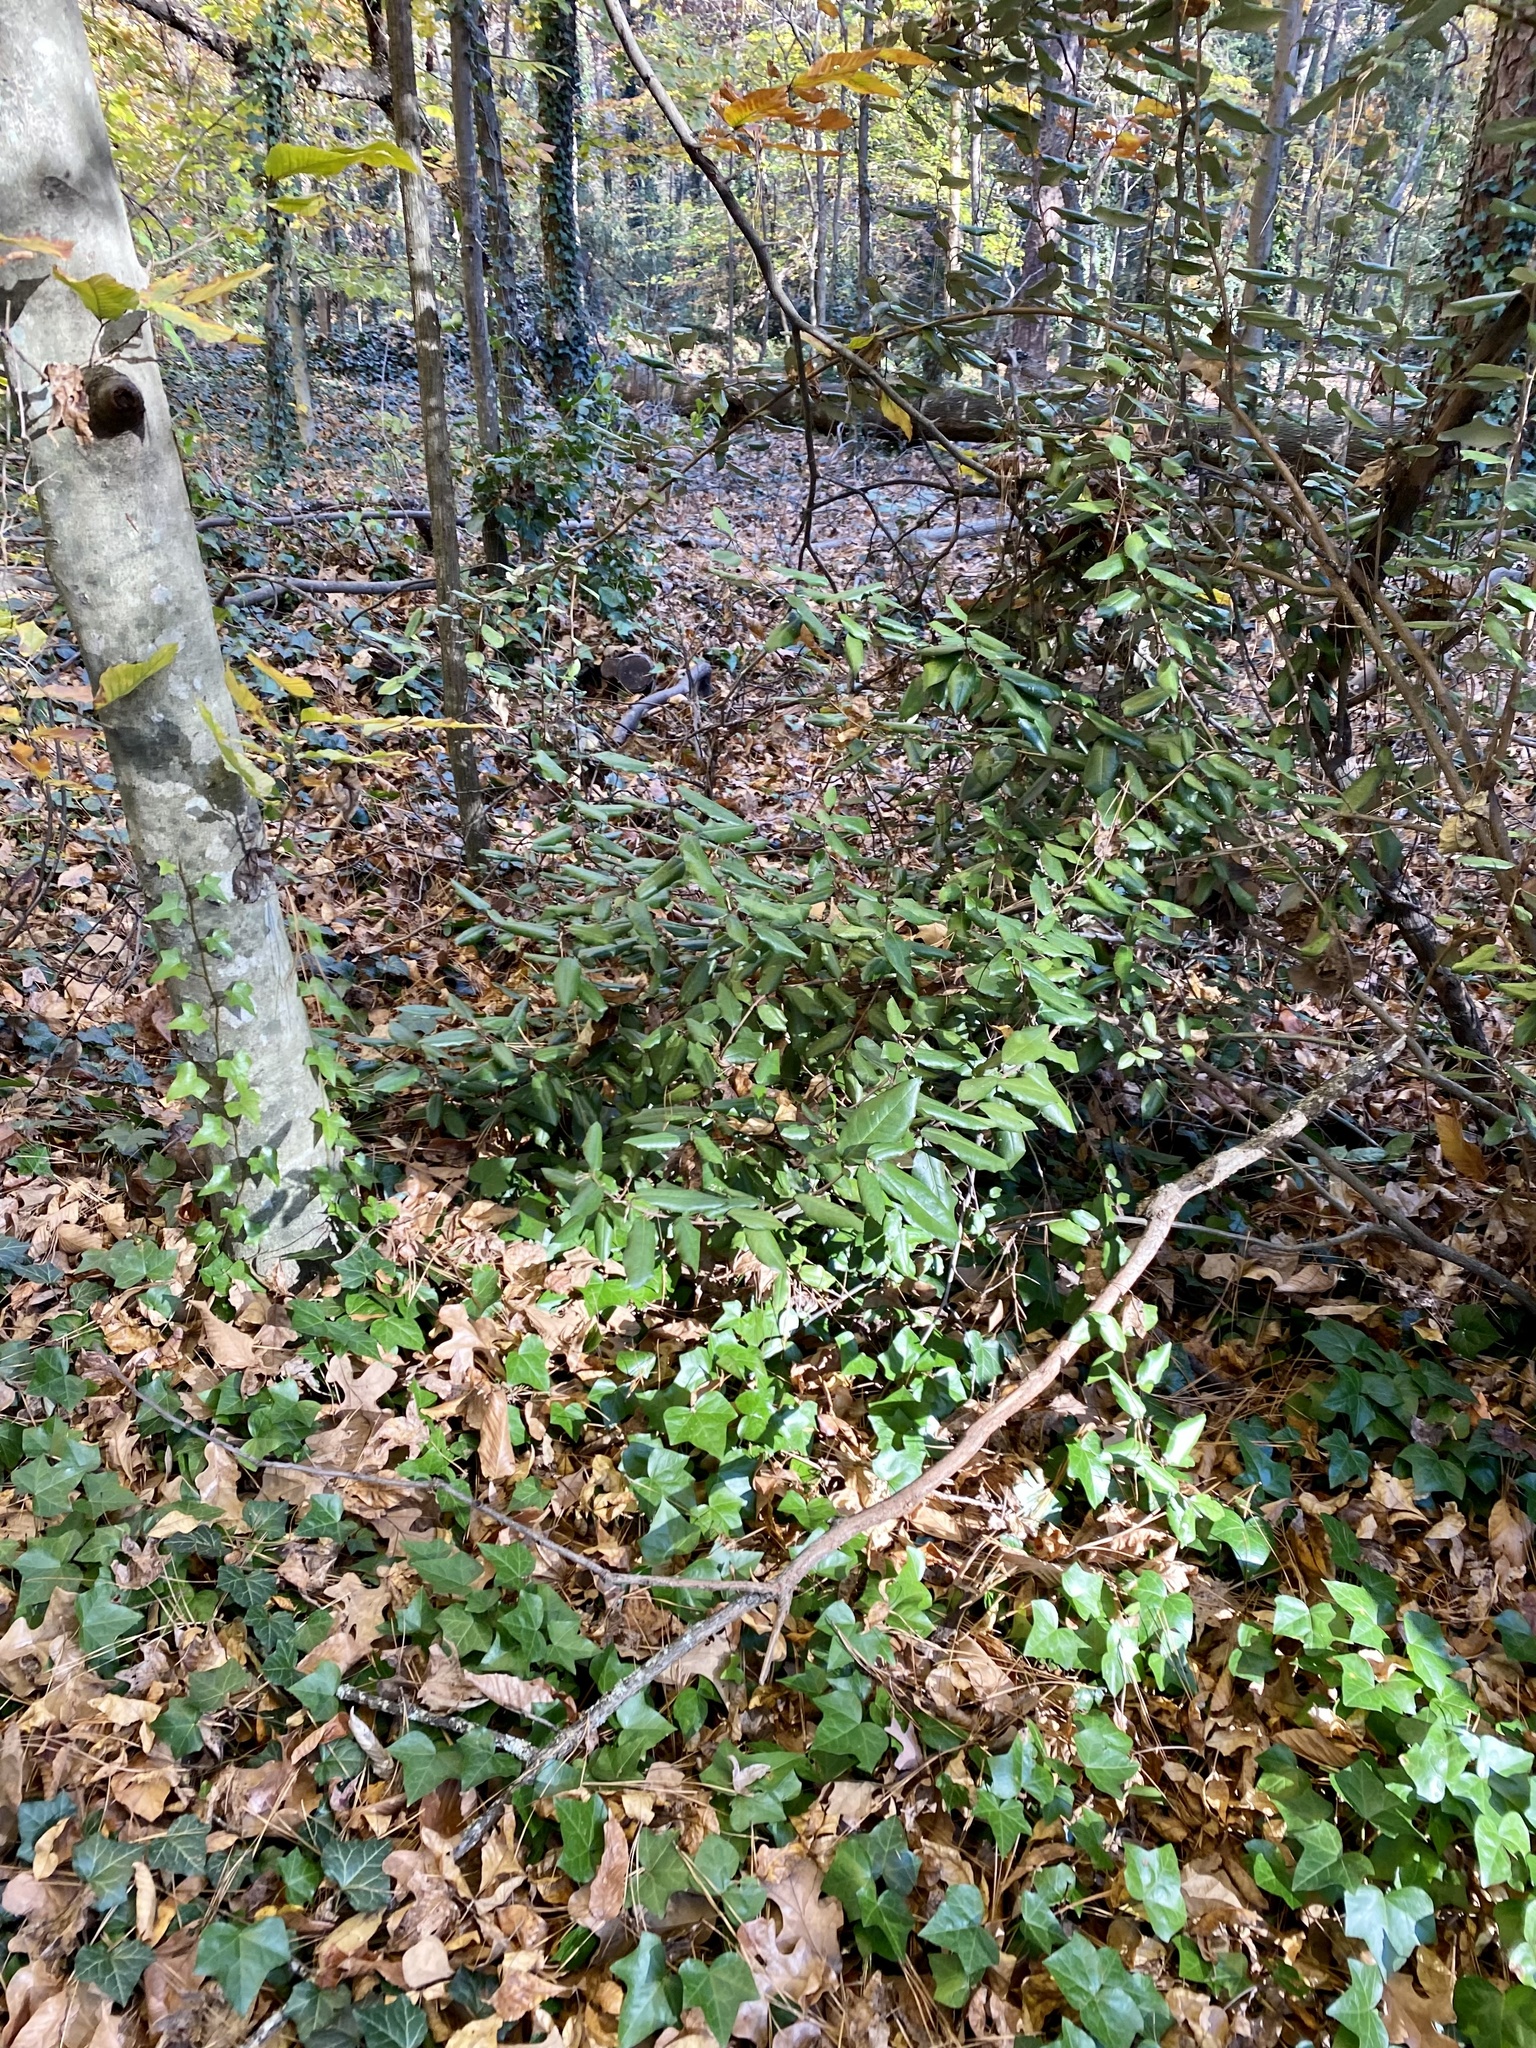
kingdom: Plantae
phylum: Tracheophyta
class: Magnoliopsida
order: Rosales
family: Elaeagnaceae
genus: Elaeagnus
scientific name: Elaeagnus pungens
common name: Spiny oleaster
